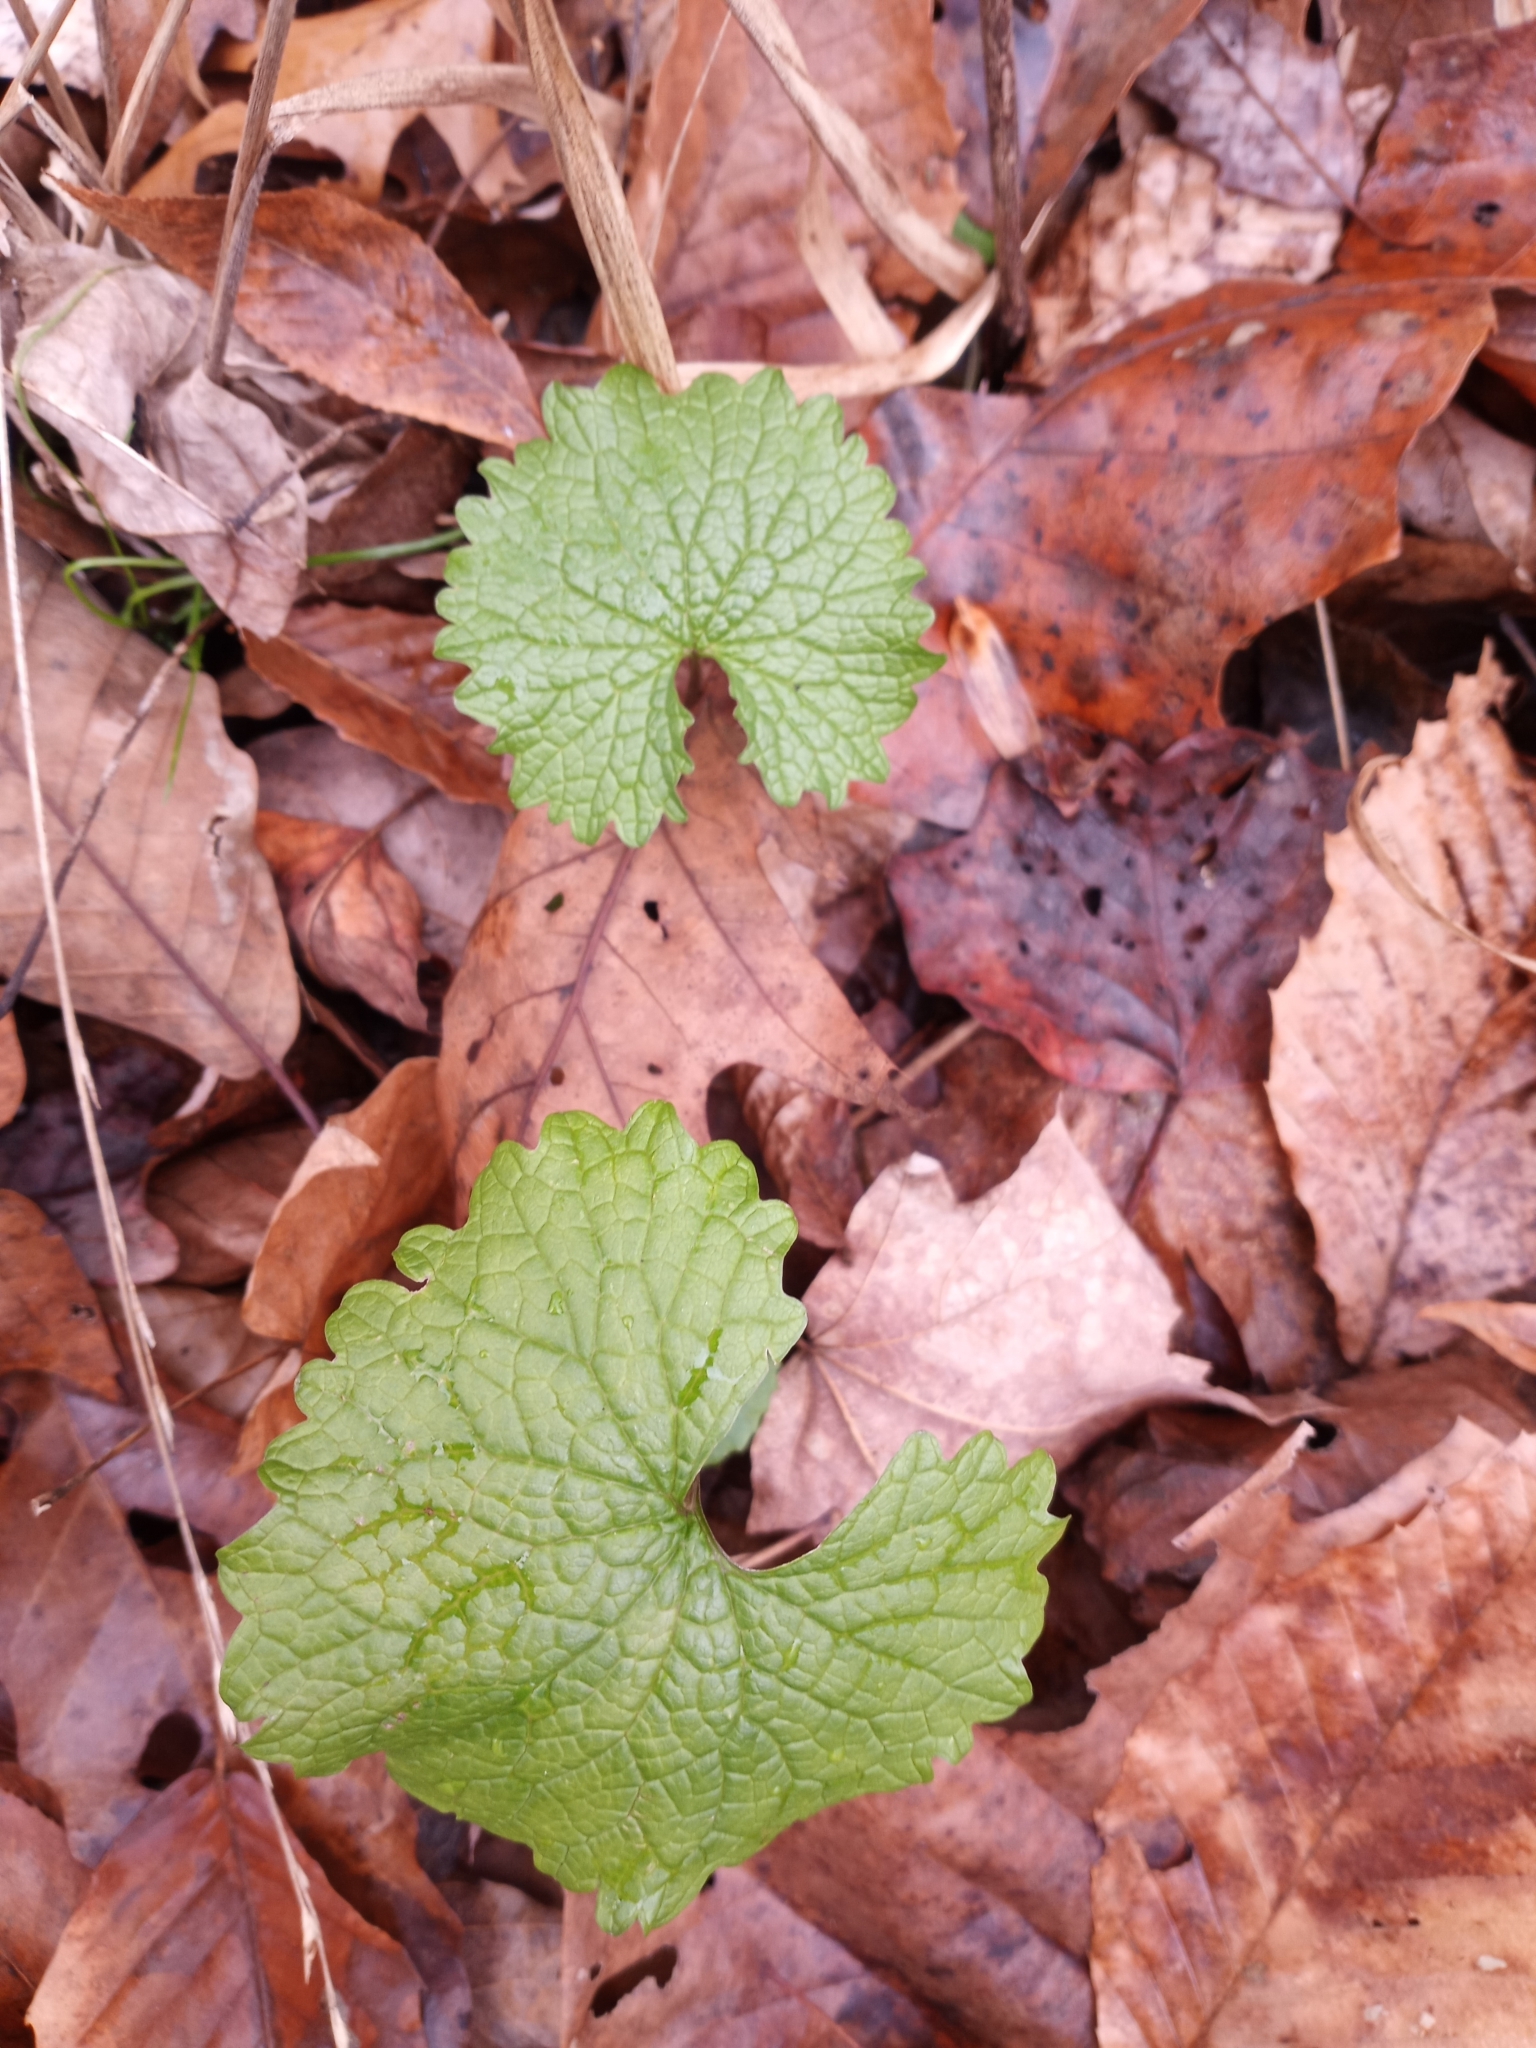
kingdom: Plantae
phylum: Tracheophyta
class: Magnoliopsida
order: Brassicales
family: Brassicaceae
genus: Alliaria
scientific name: Alliaria petiolata
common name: Garlic mustard
